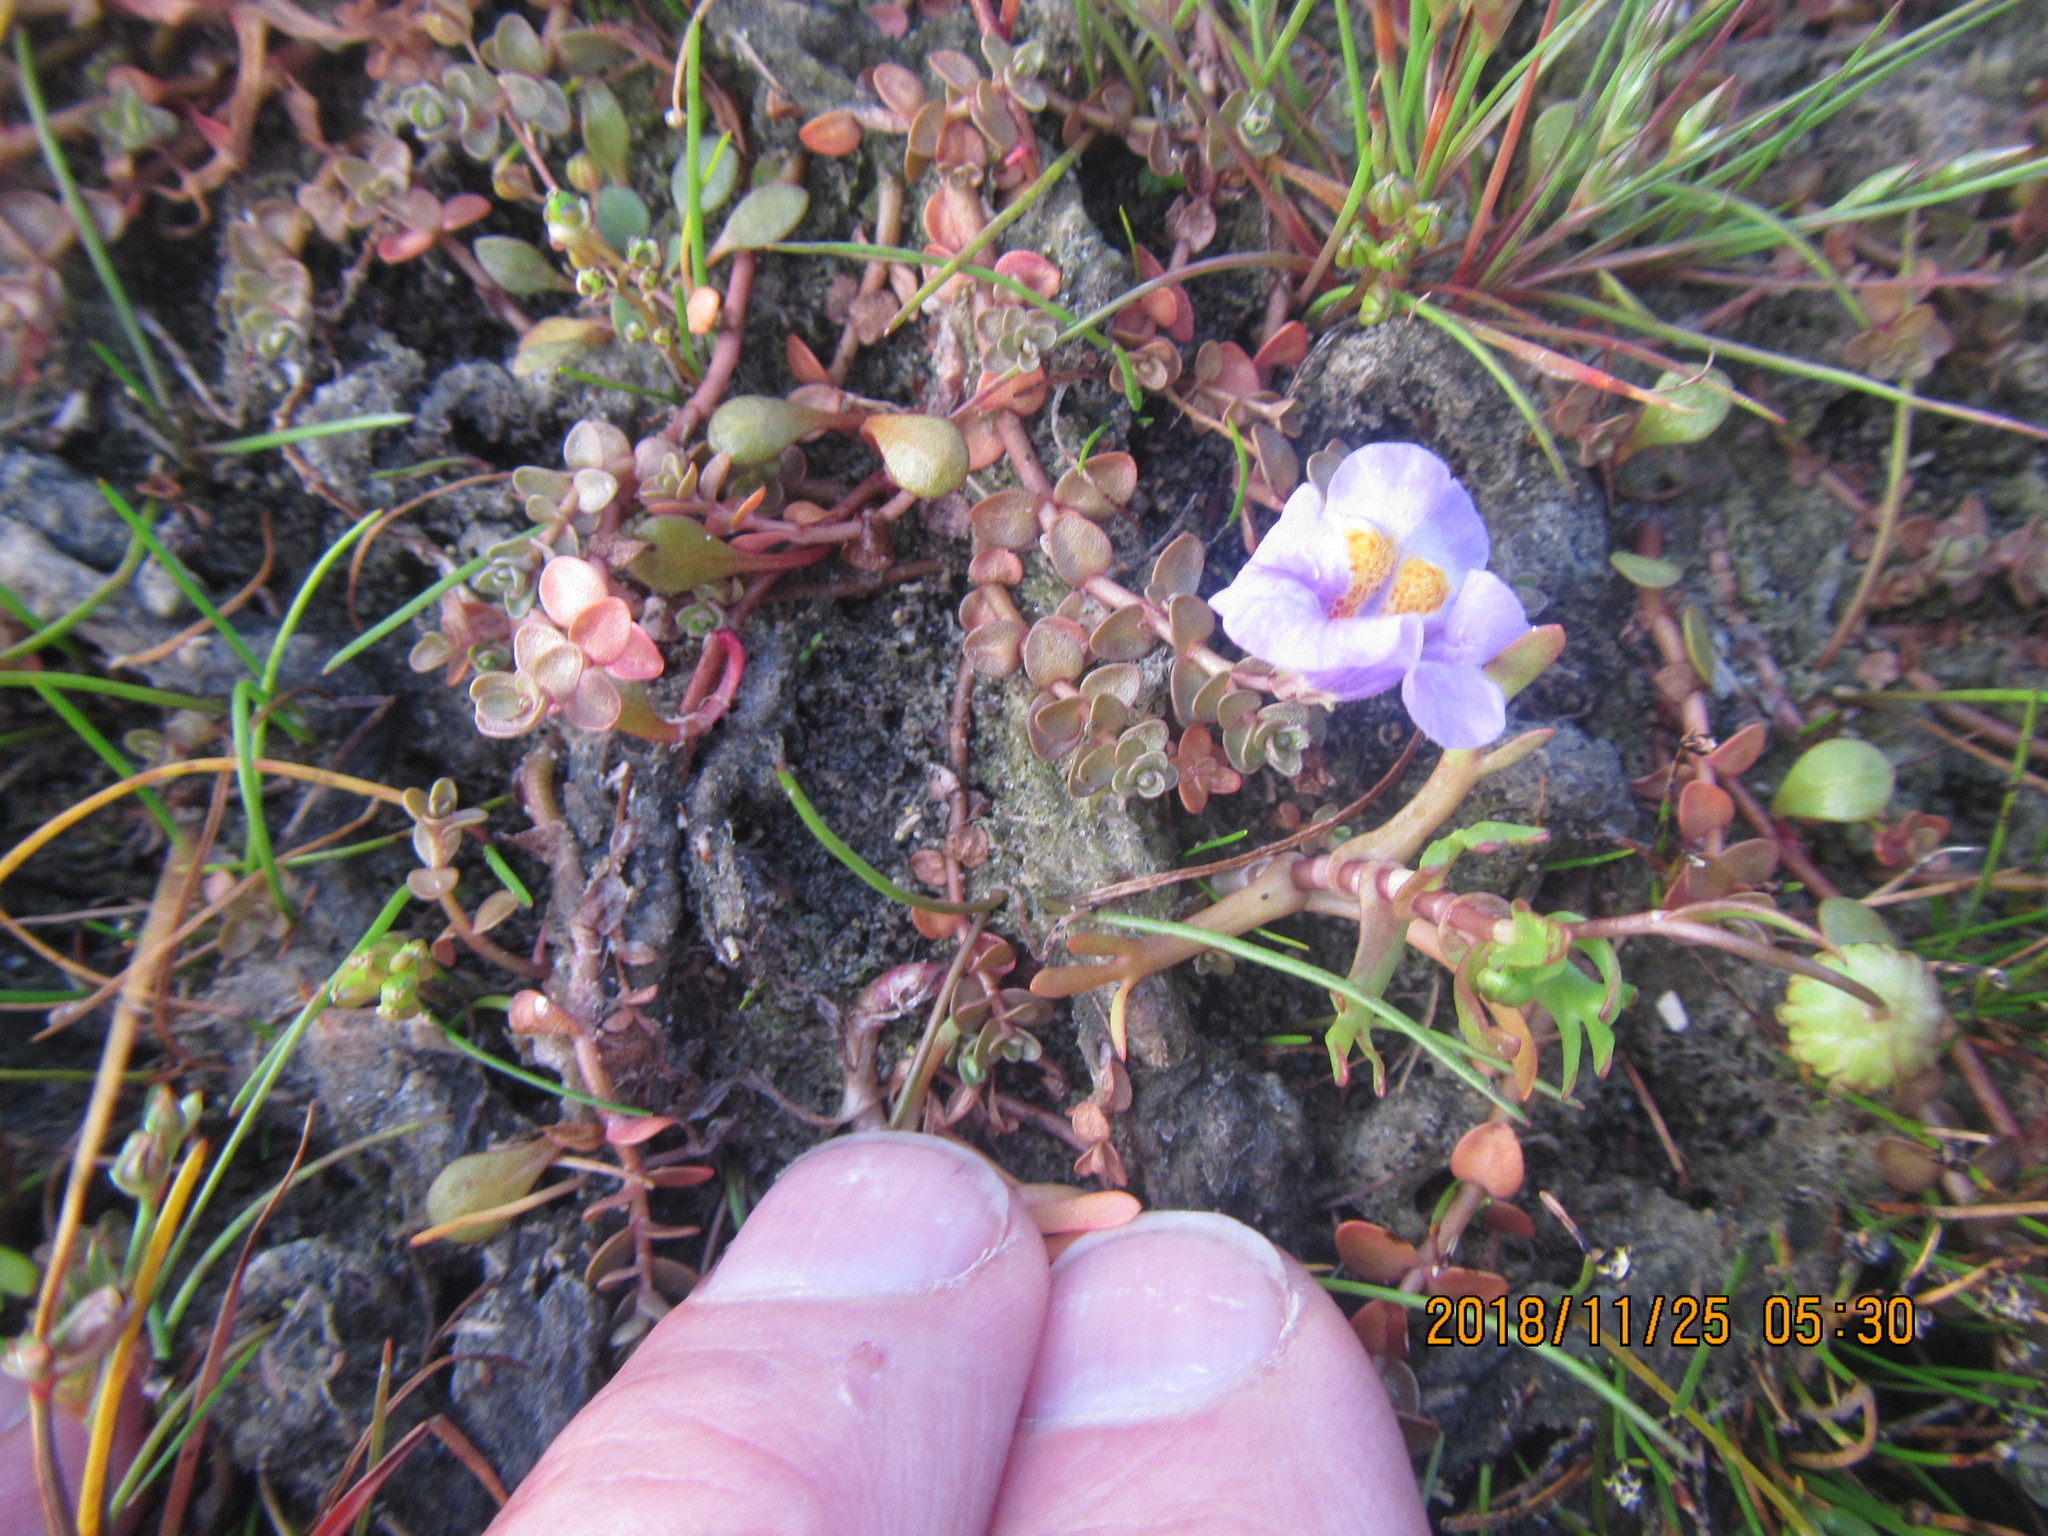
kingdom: Plantae
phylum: Tracheophyta
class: Magnoliopsida
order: Lamiales
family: Phrymaceae
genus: Thyridia
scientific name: Thyridia repens
